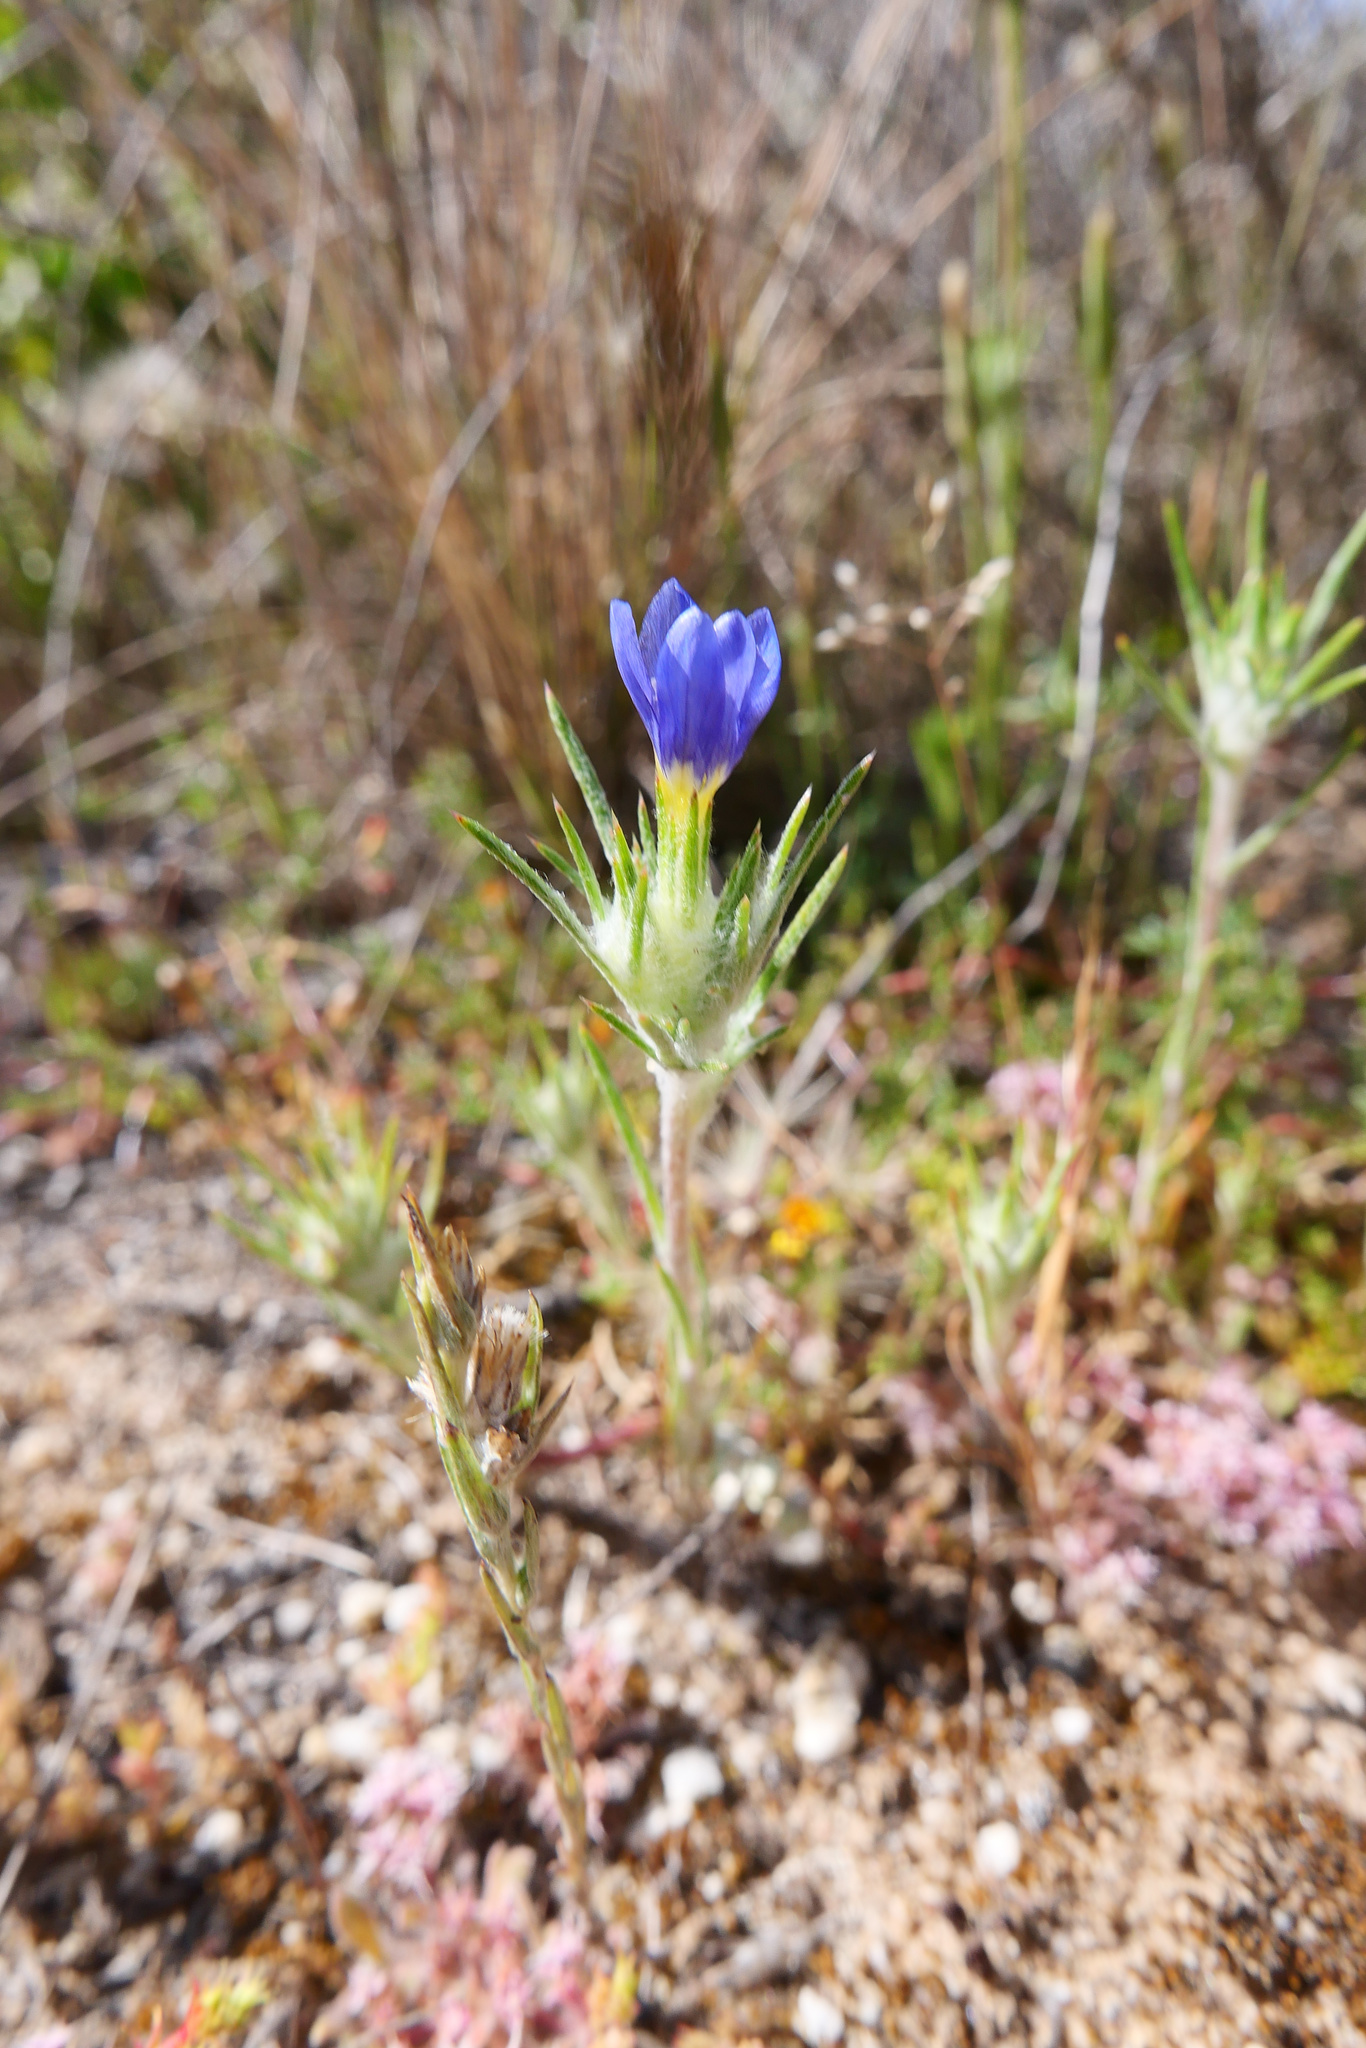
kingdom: Plantae
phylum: Tracheophyta
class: Magnoliopsida
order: Ericales
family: Polemoniaceae
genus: Eriastrum
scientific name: Eriastrum virgatum
